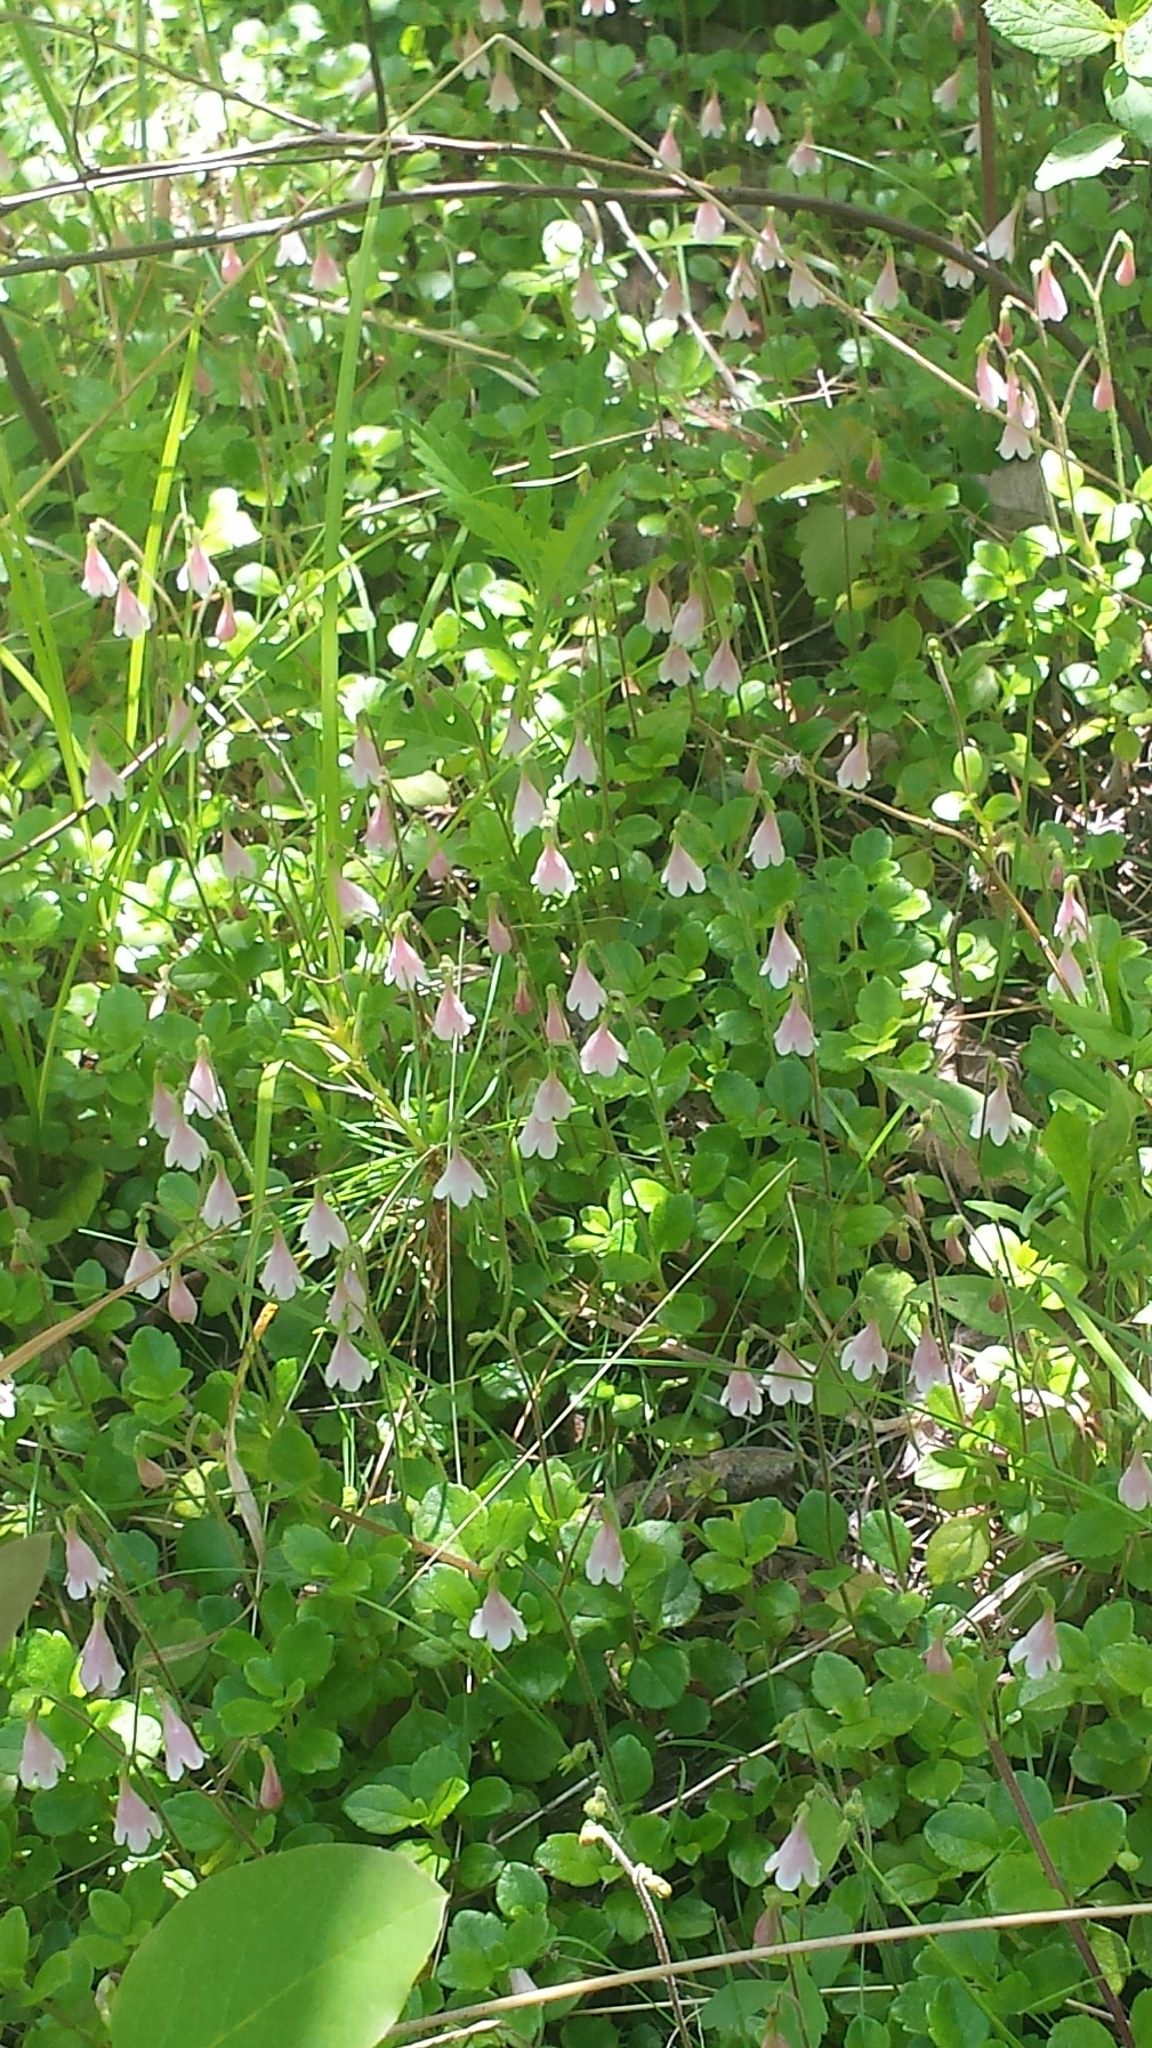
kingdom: Plantae
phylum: Tracheophyta
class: Magnoliopsida
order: Dipsacales
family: Caprifoliaceae
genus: Linnaea
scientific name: Linnaea borealis
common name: Twinflower
